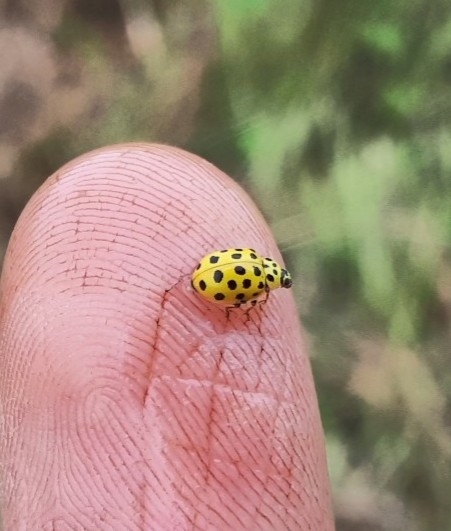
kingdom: Animalia
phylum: Arthropoda
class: Insecta
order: Coleoptera
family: Coccinellidae
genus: Psyllobora
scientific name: Psyllobora vigintiduopunctata
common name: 22-spot ladybird
